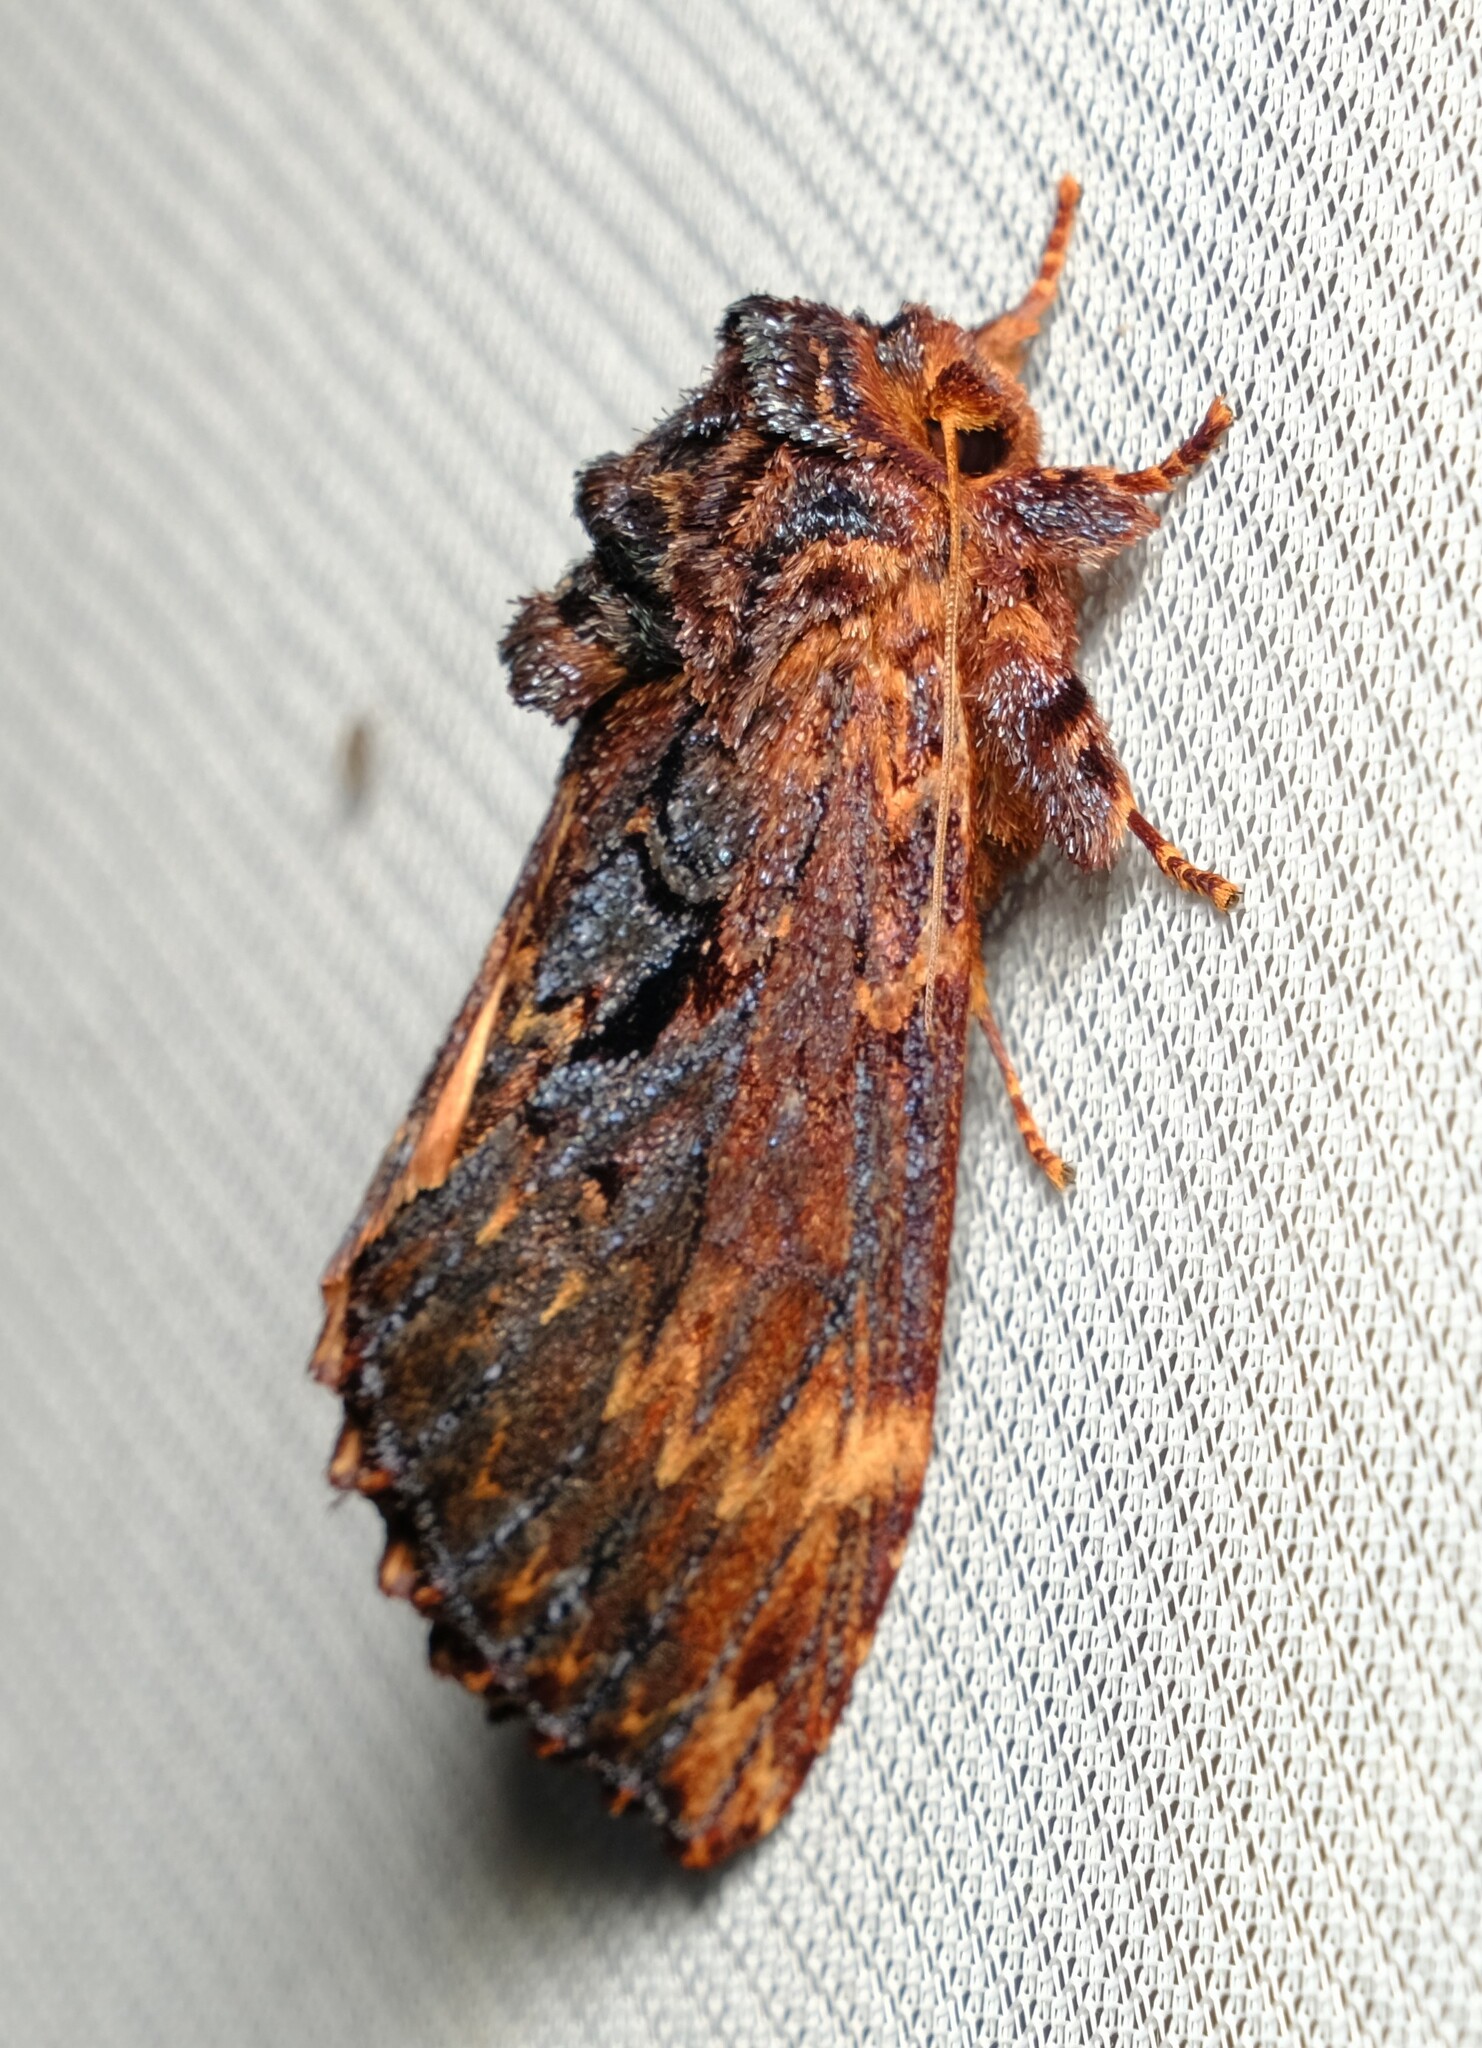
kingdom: Animalia
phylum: Arthropoda
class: Insecta
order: Lepidoptera
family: Notodontidae
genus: Sorama
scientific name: Sorama bicolor
